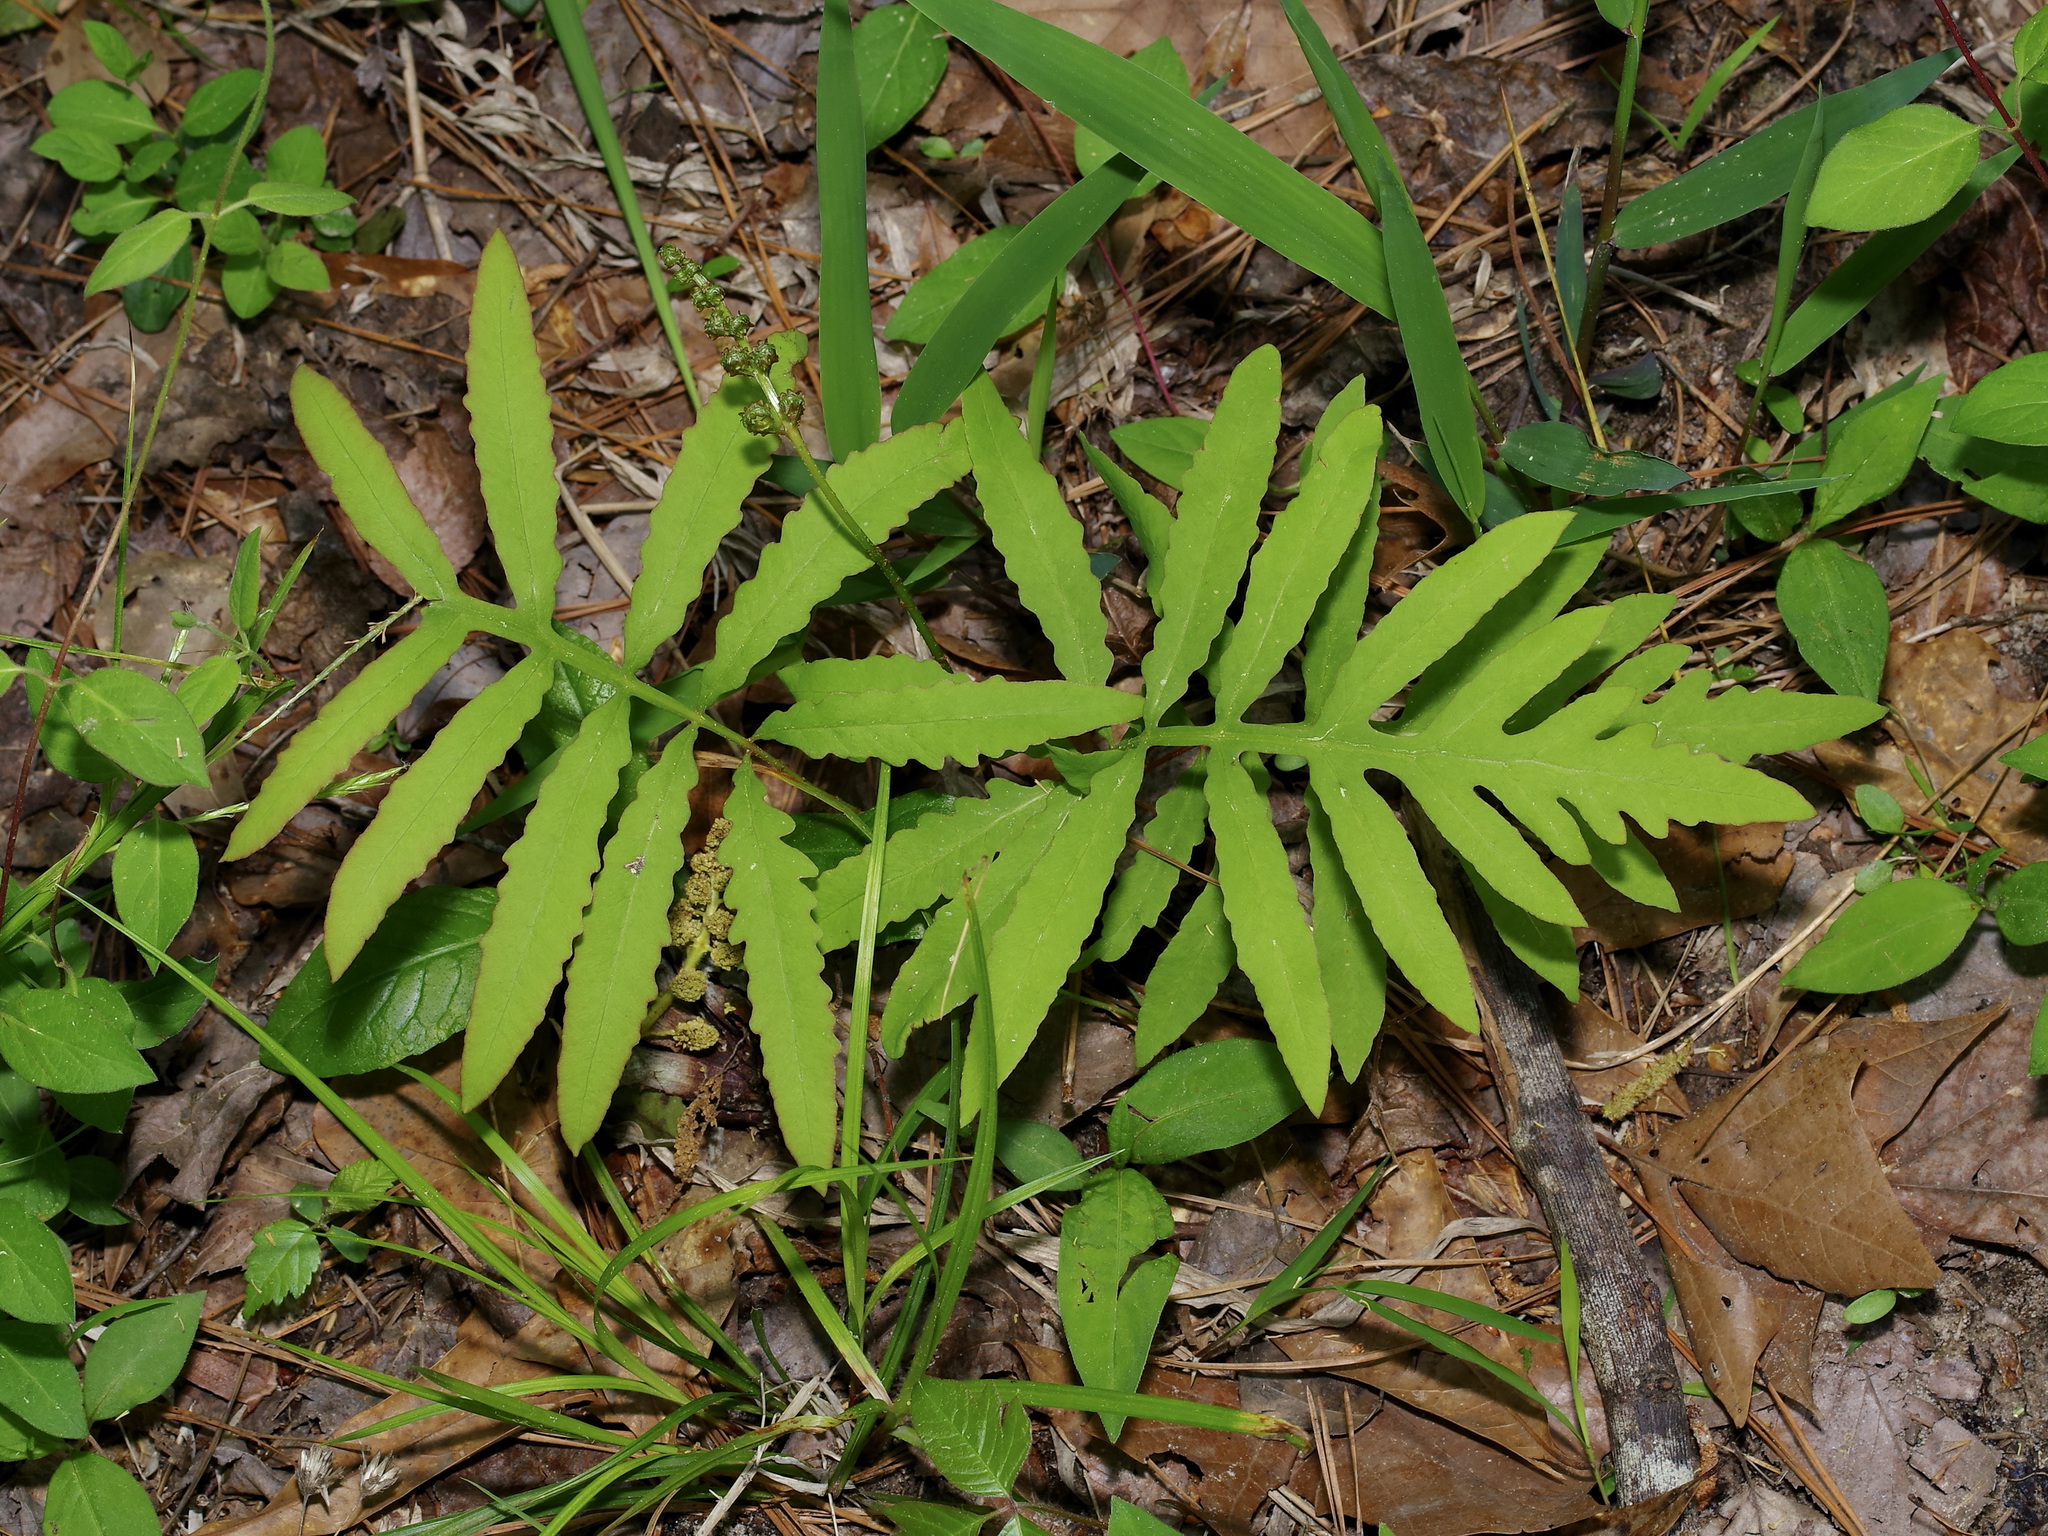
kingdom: Plantae
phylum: Tracheophyta
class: Polypodiopsida
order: Polypodiales
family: Onocleaceae
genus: Onoclea
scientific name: Onoclea sensibilis
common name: Sensitive fern
